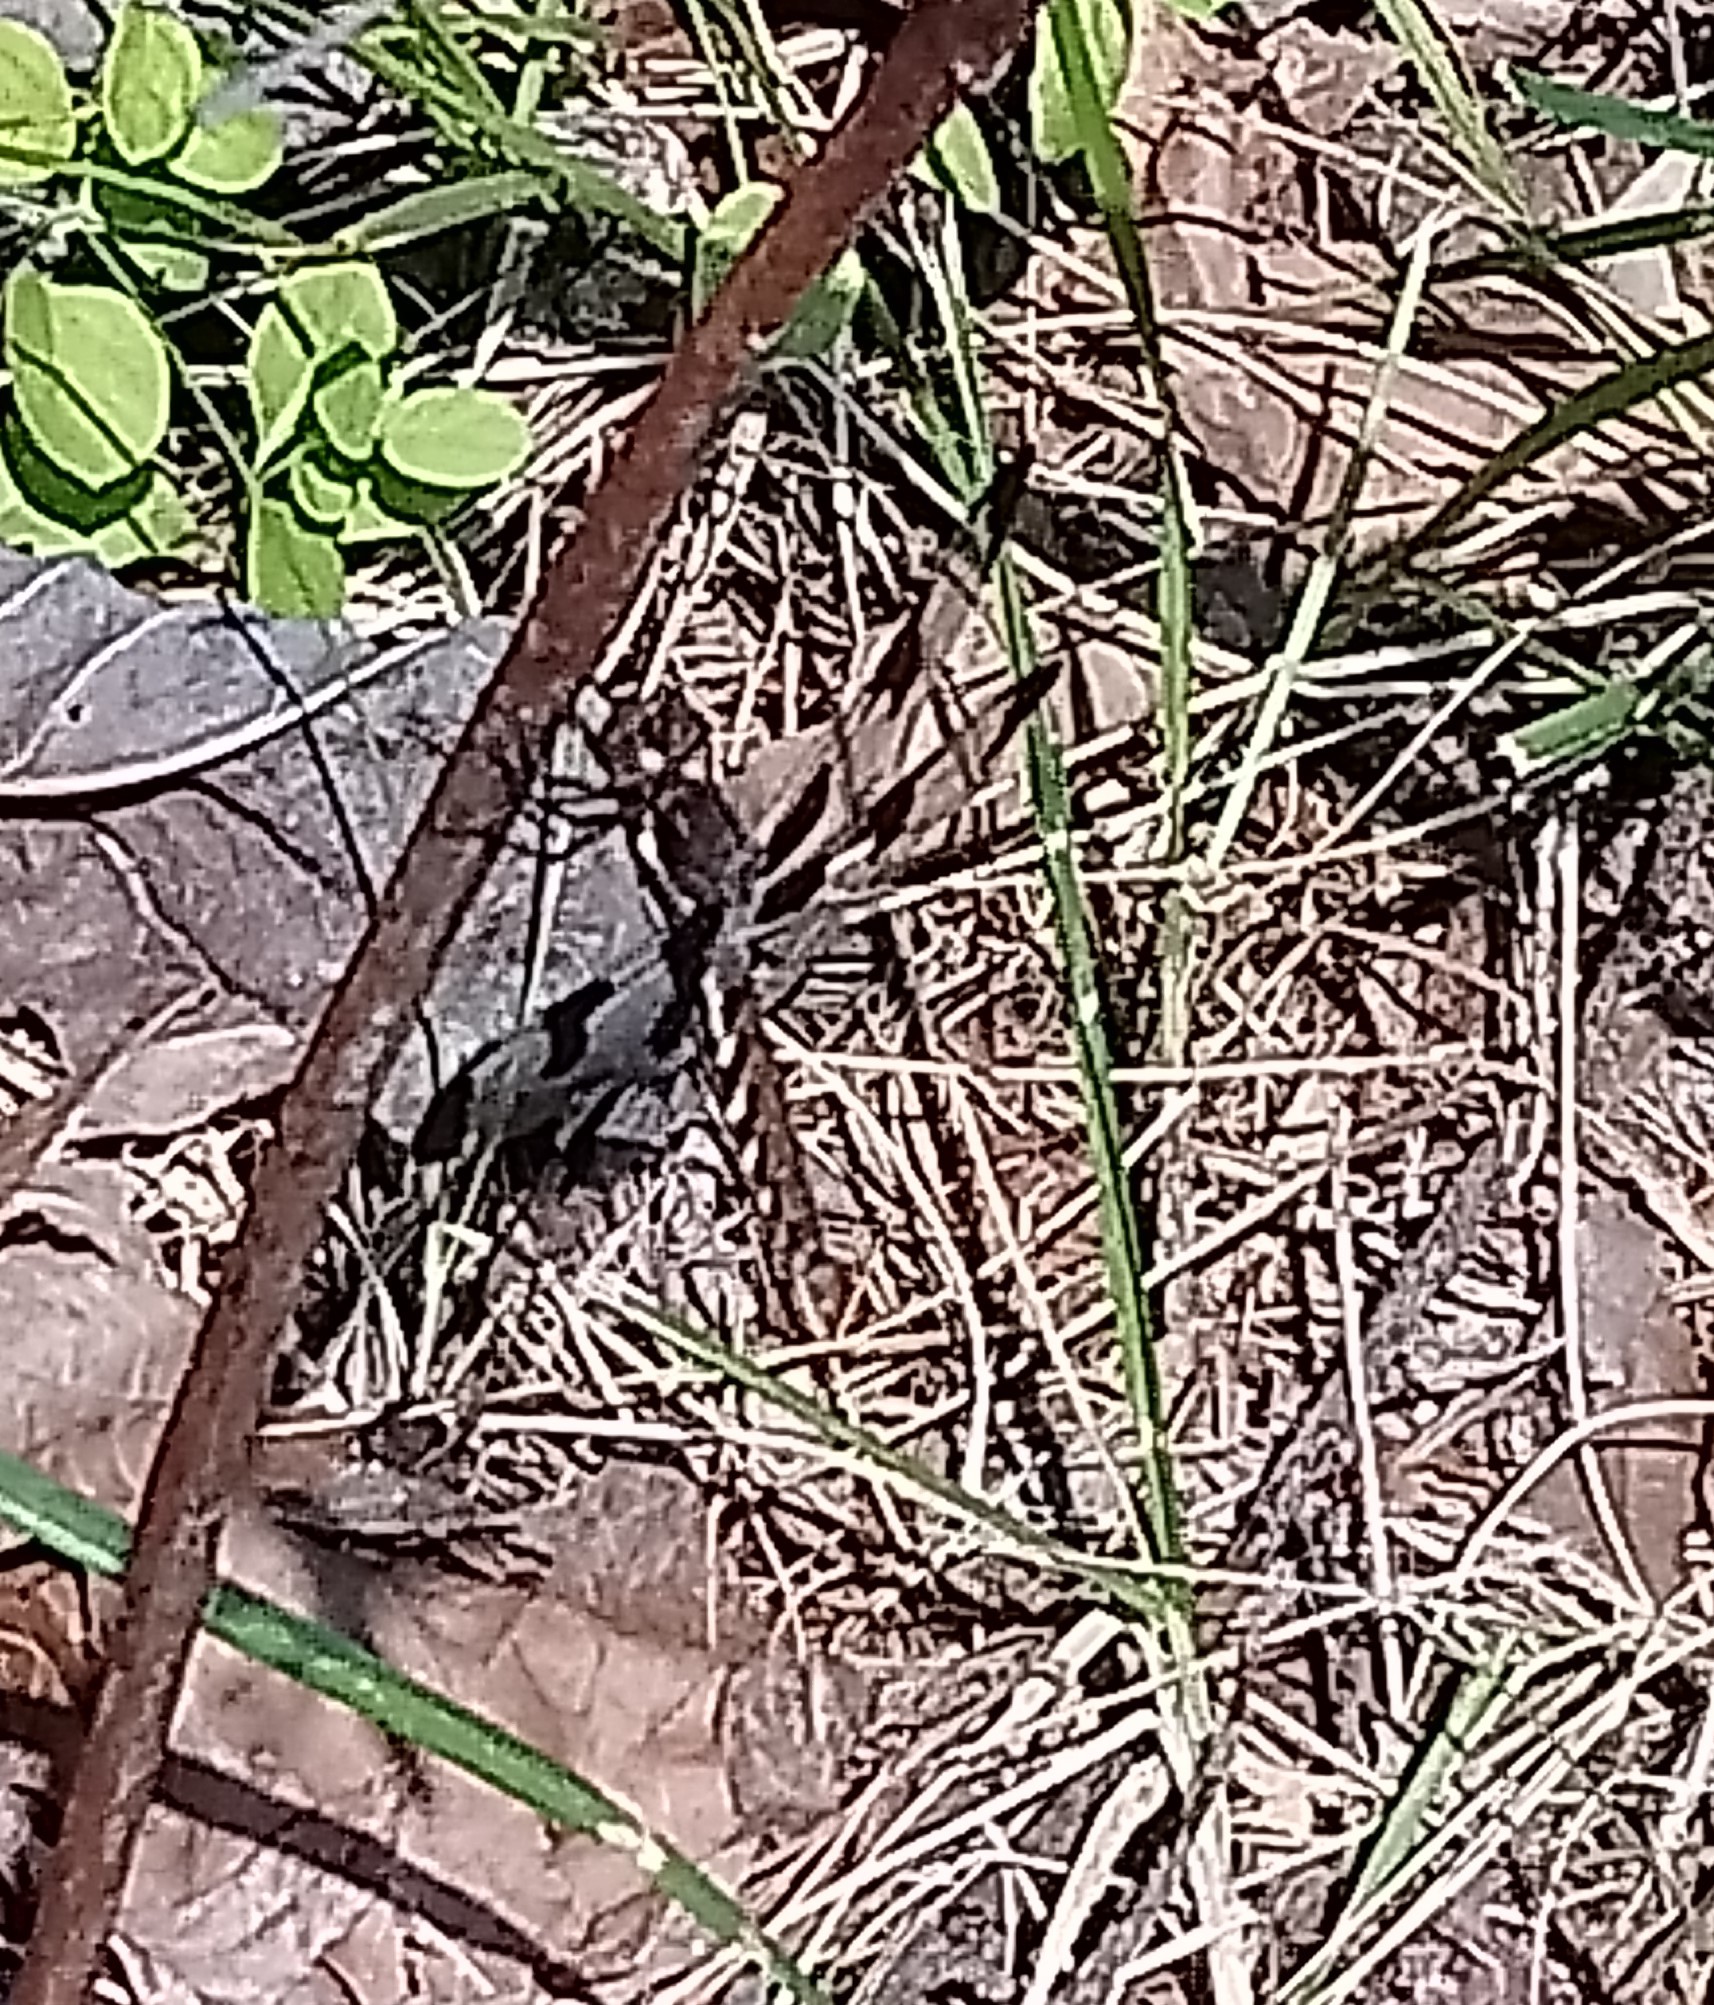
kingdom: Animalia
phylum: Arthropoda
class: Insecta
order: Odonata
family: Libellulidae
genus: Plathemis
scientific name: Plathemis lydia
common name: Common whitetail
